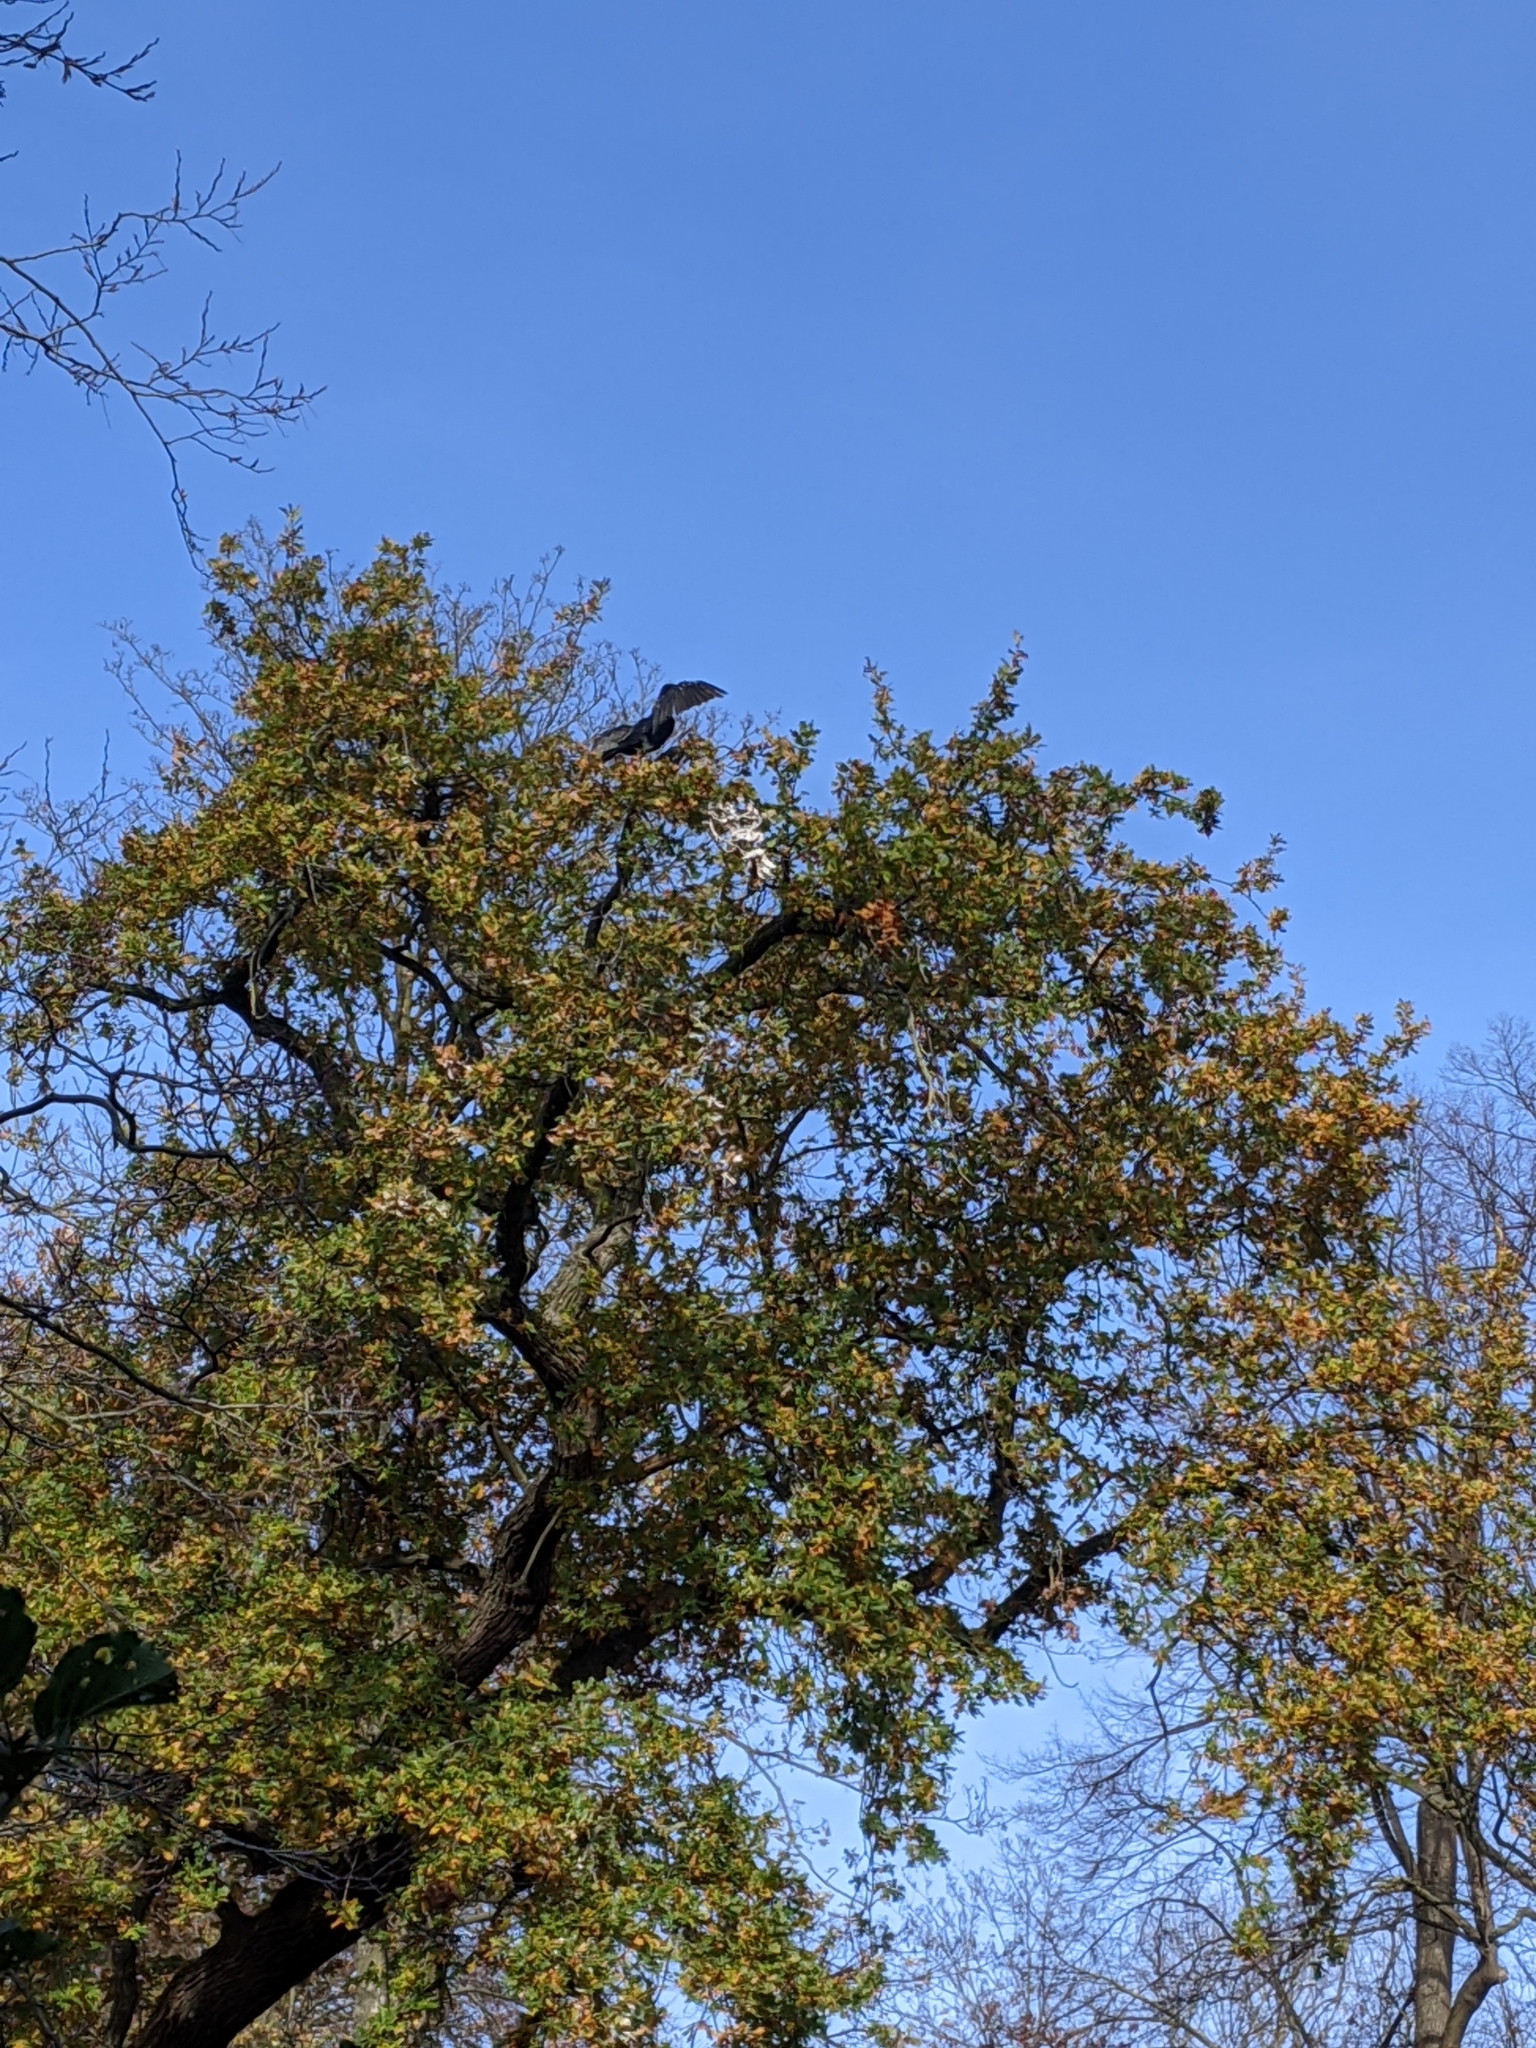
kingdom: Animalia
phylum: Chordata
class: Aves
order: Suliformes
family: Phalacrocoracidae
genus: Phalacrocorax
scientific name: Phalacrocorax carbo
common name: Great cormorant
